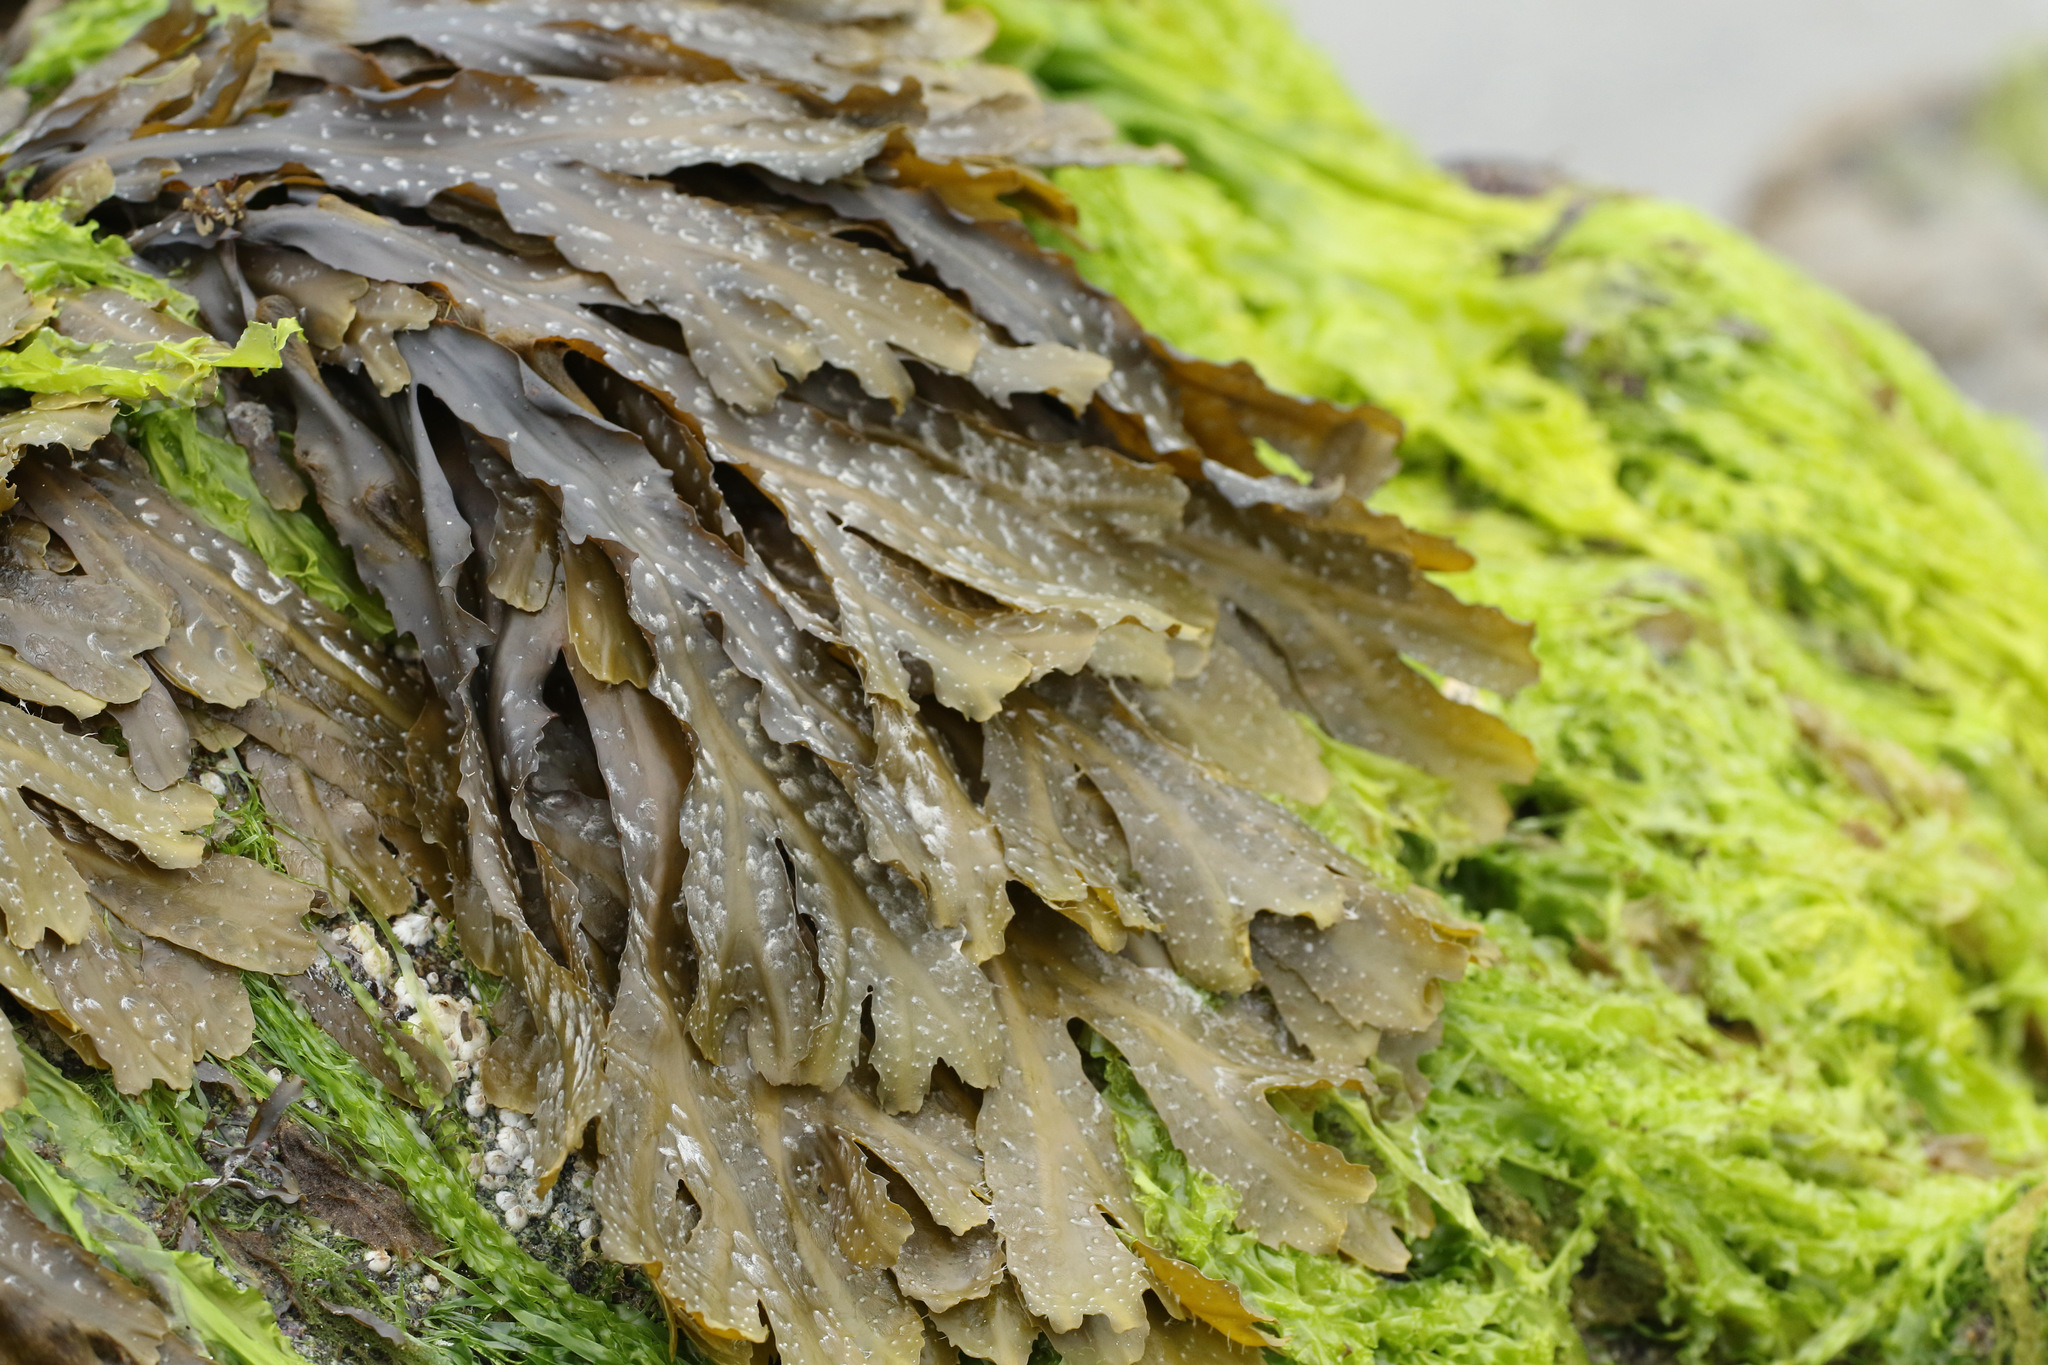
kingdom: Chromista
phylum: Ochrophyta
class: Phaeophyceae
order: Fucales
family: Fucaceae
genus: Fucus
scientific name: Fucus serratus
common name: Toothed wrack
